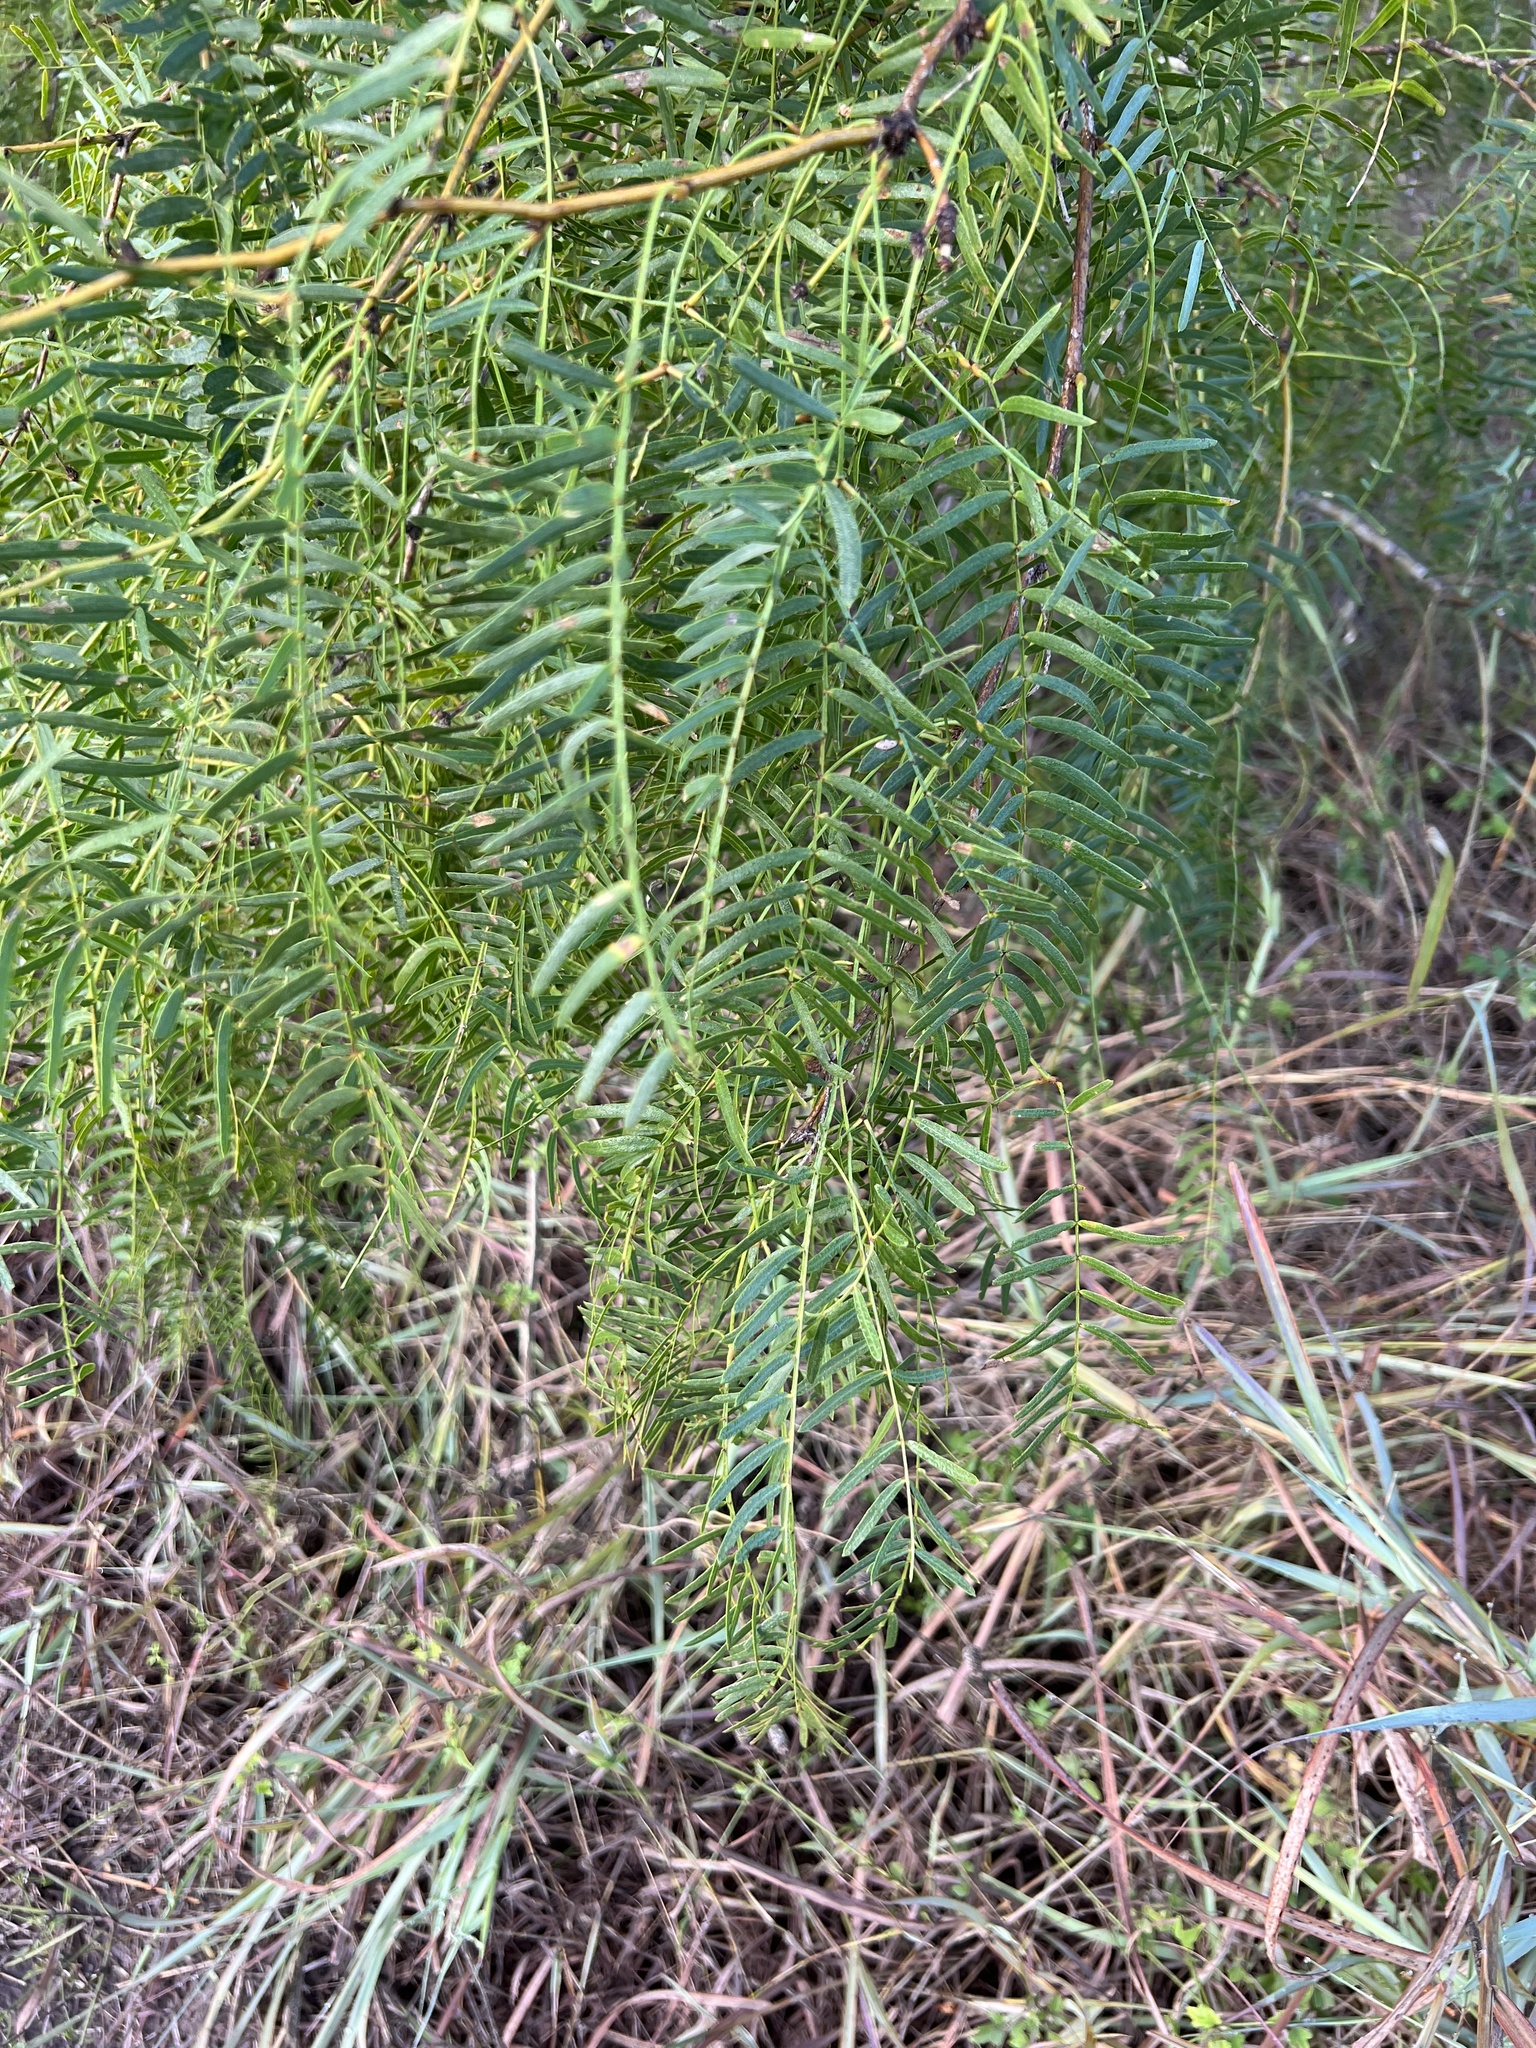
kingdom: Plantae
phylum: Tracheophyta
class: Magnoliopsida
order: Fabales
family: Fabaceae
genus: Prosopis
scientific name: Prosopis glandulosa
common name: Honey mesquite
